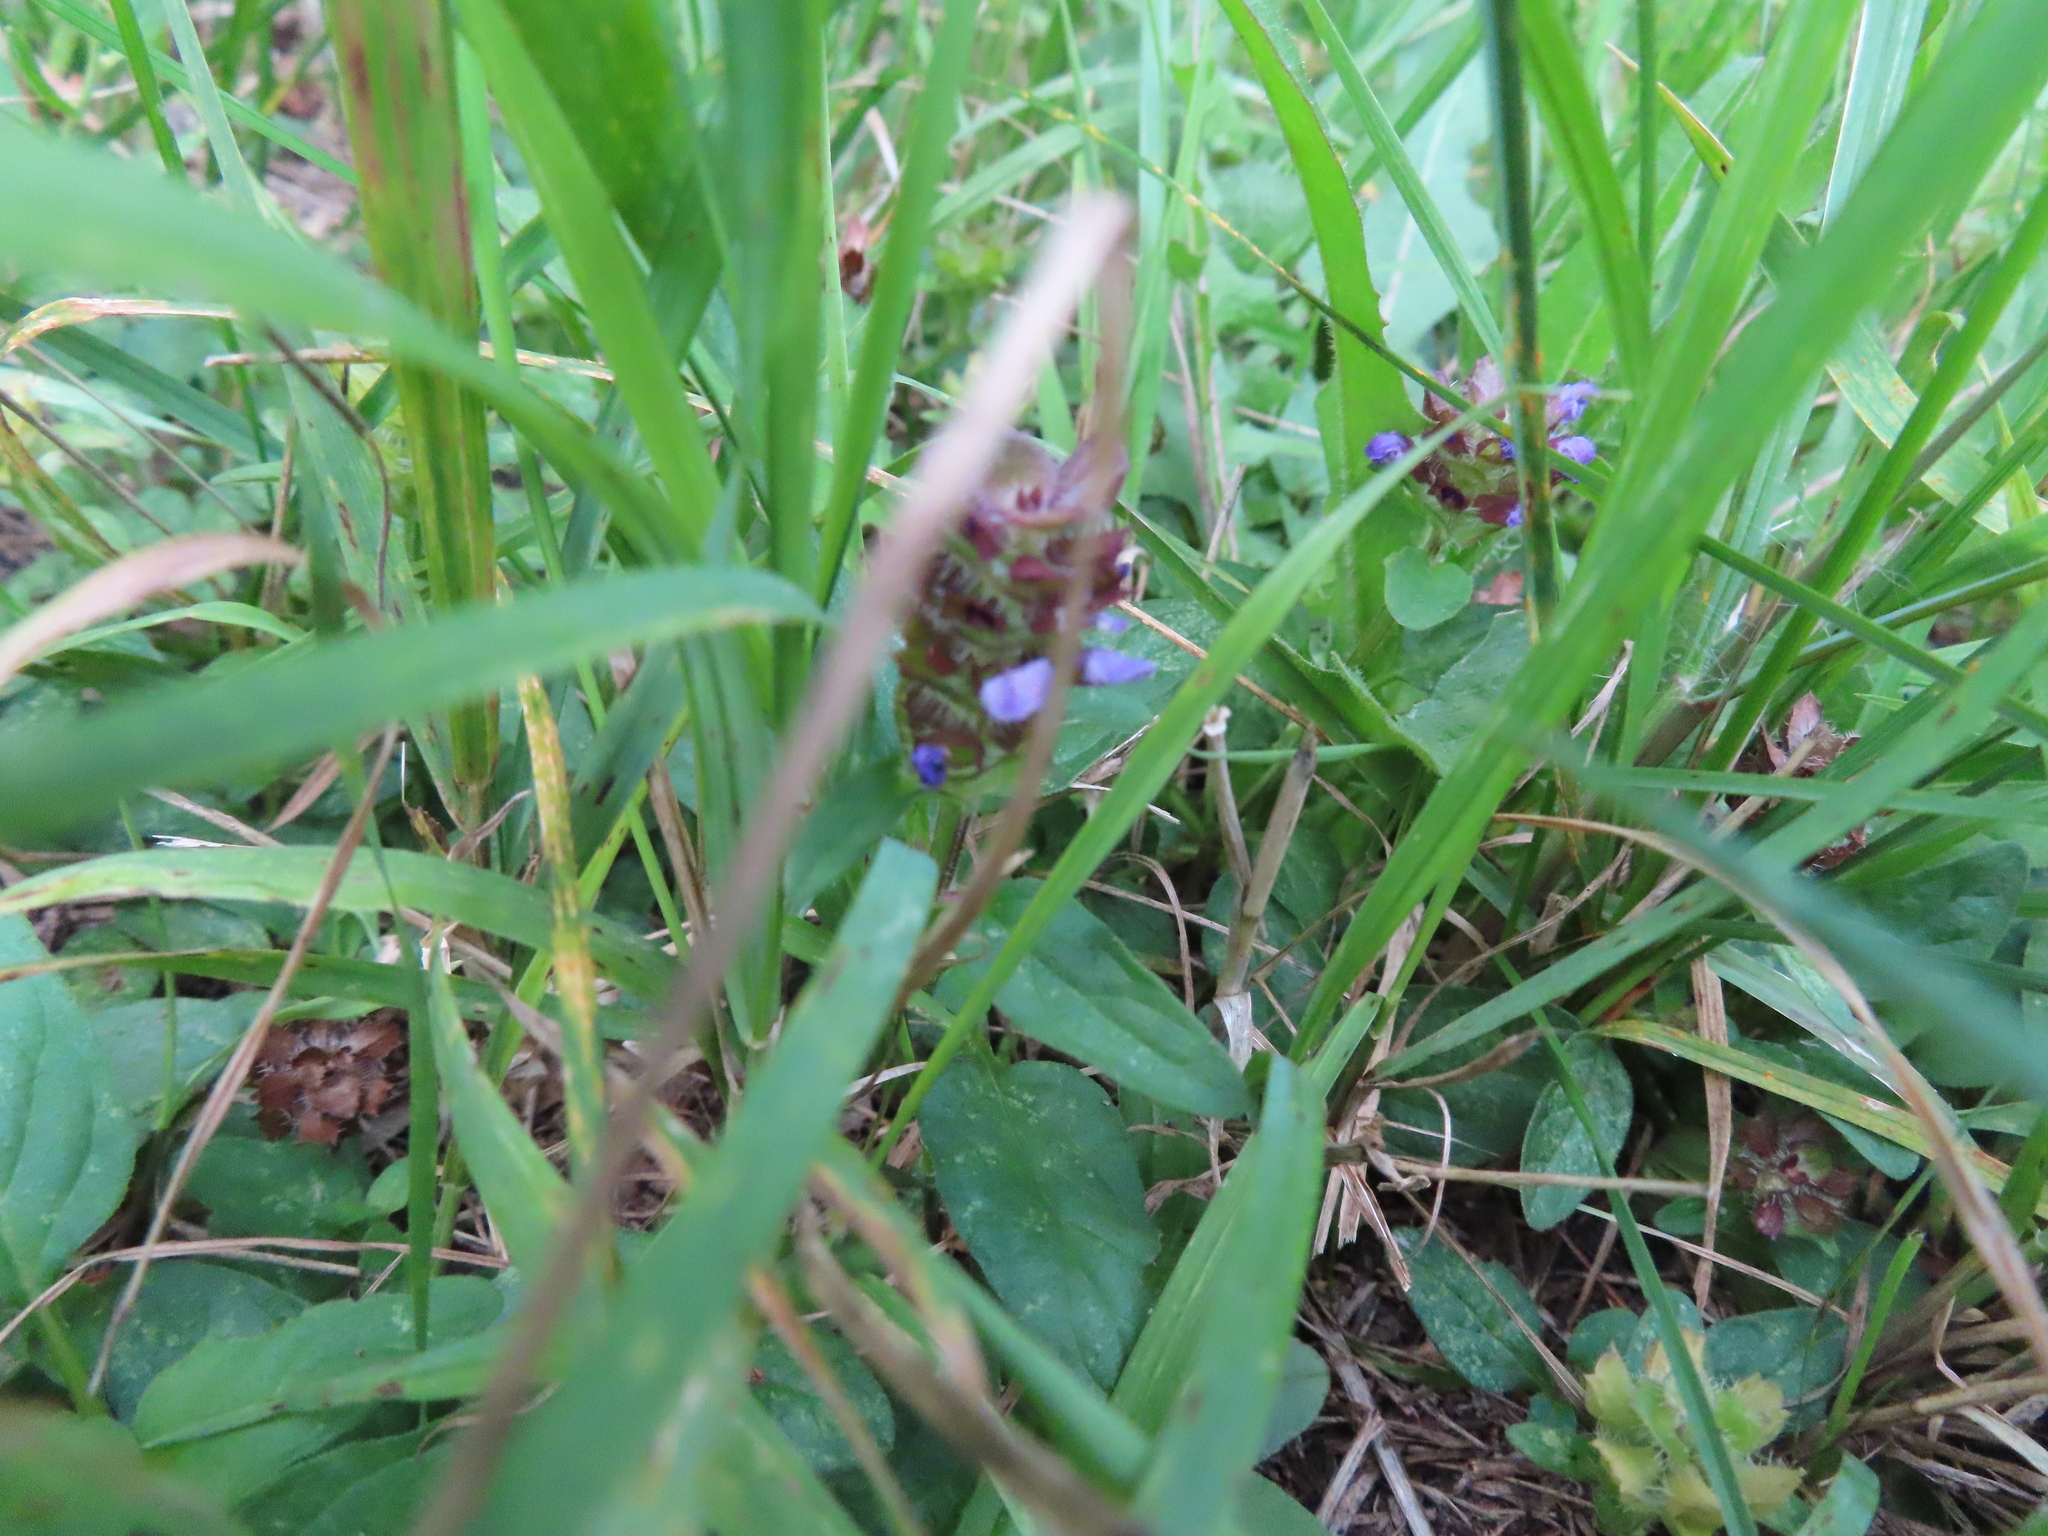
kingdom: Plantae
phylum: Tracheophyta
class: Magnoliopsida
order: Lamiales
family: Lamiaceae
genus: Prunella
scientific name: Prunella vulgaris
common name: Heal-all
